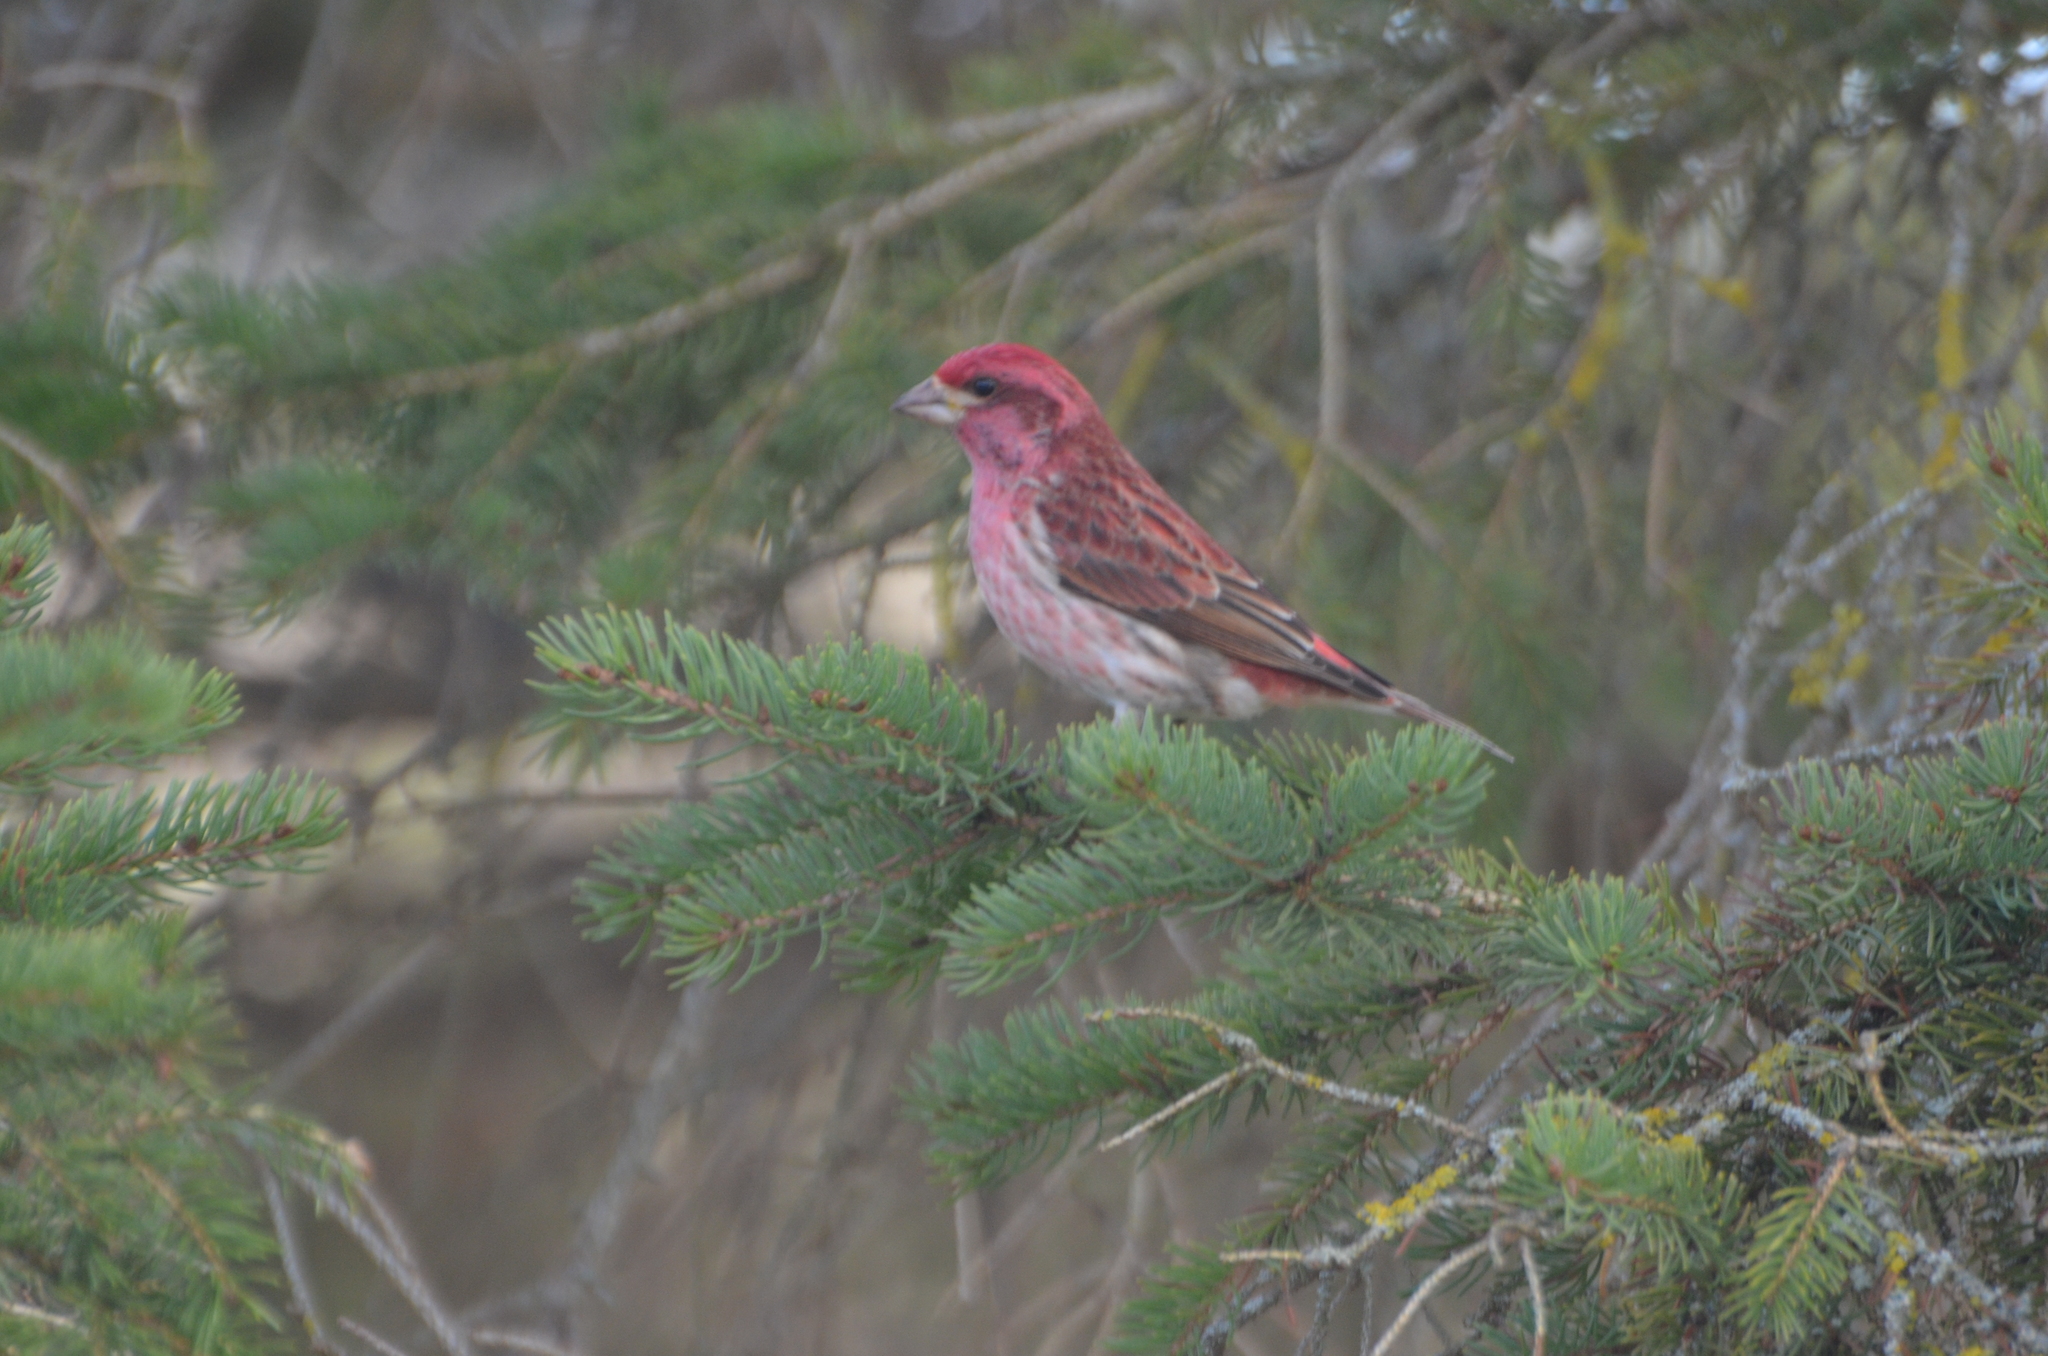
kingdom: Animalia
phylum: Chordata
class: Aves
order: Passeriformes
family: Fringillidae
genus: Haemorhous
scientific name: Haemorhous purpureus
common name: Purple finch
